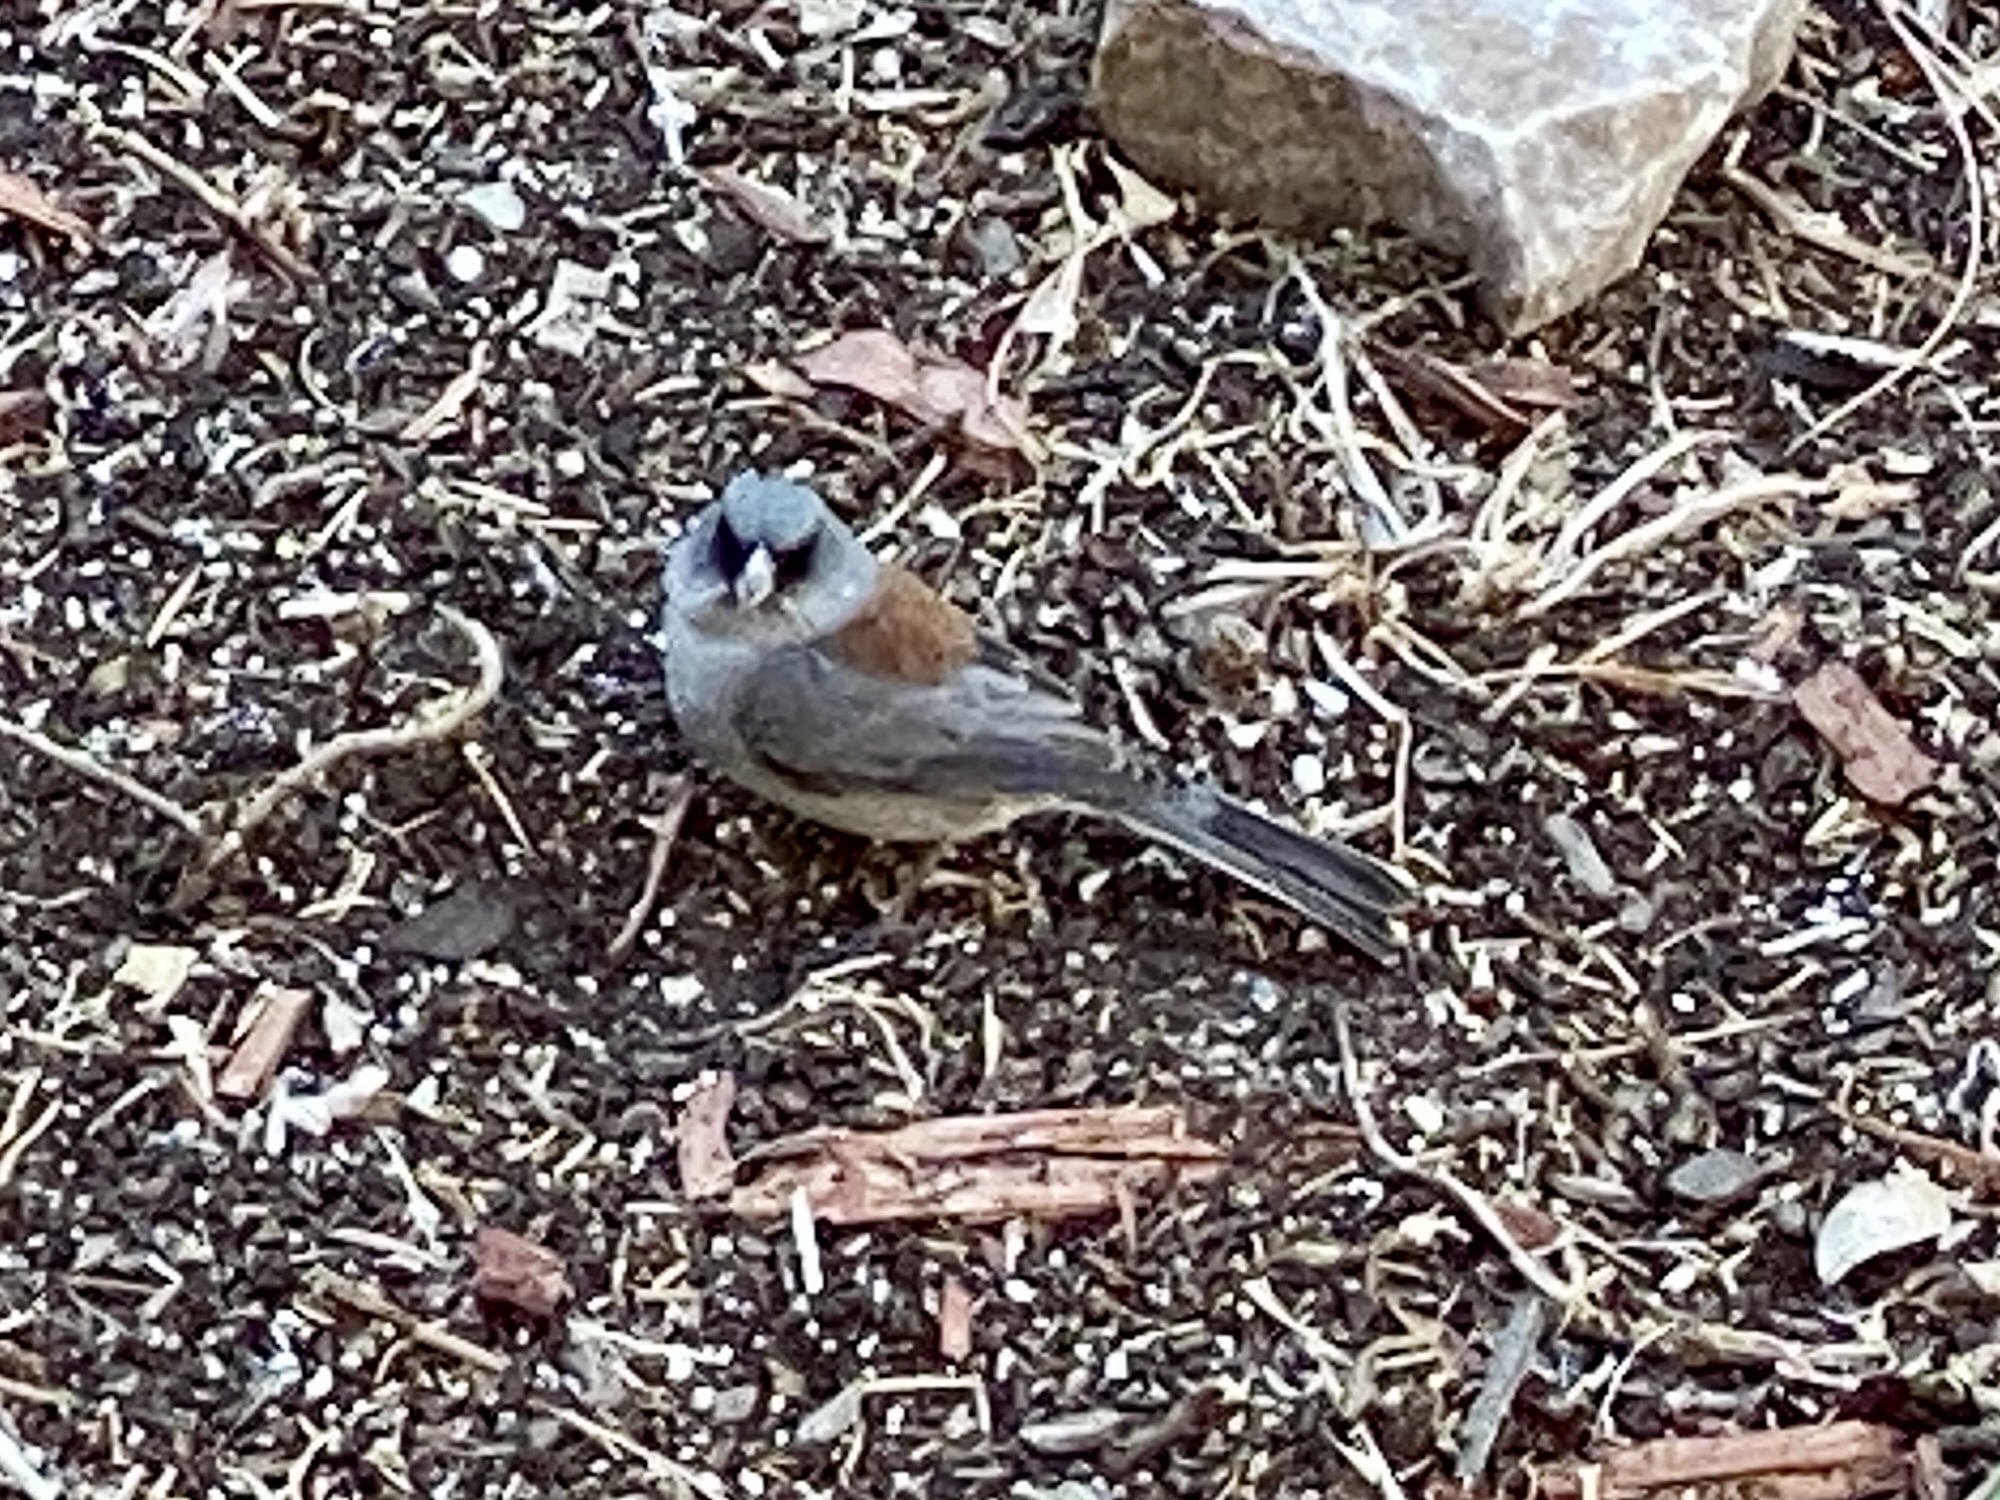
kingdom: Animalia
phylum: Chordata
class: Aves
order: Passeriformes
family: Passerellidae
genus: Junco
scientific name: Junco hyemalis
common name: Dark-eyed junco
